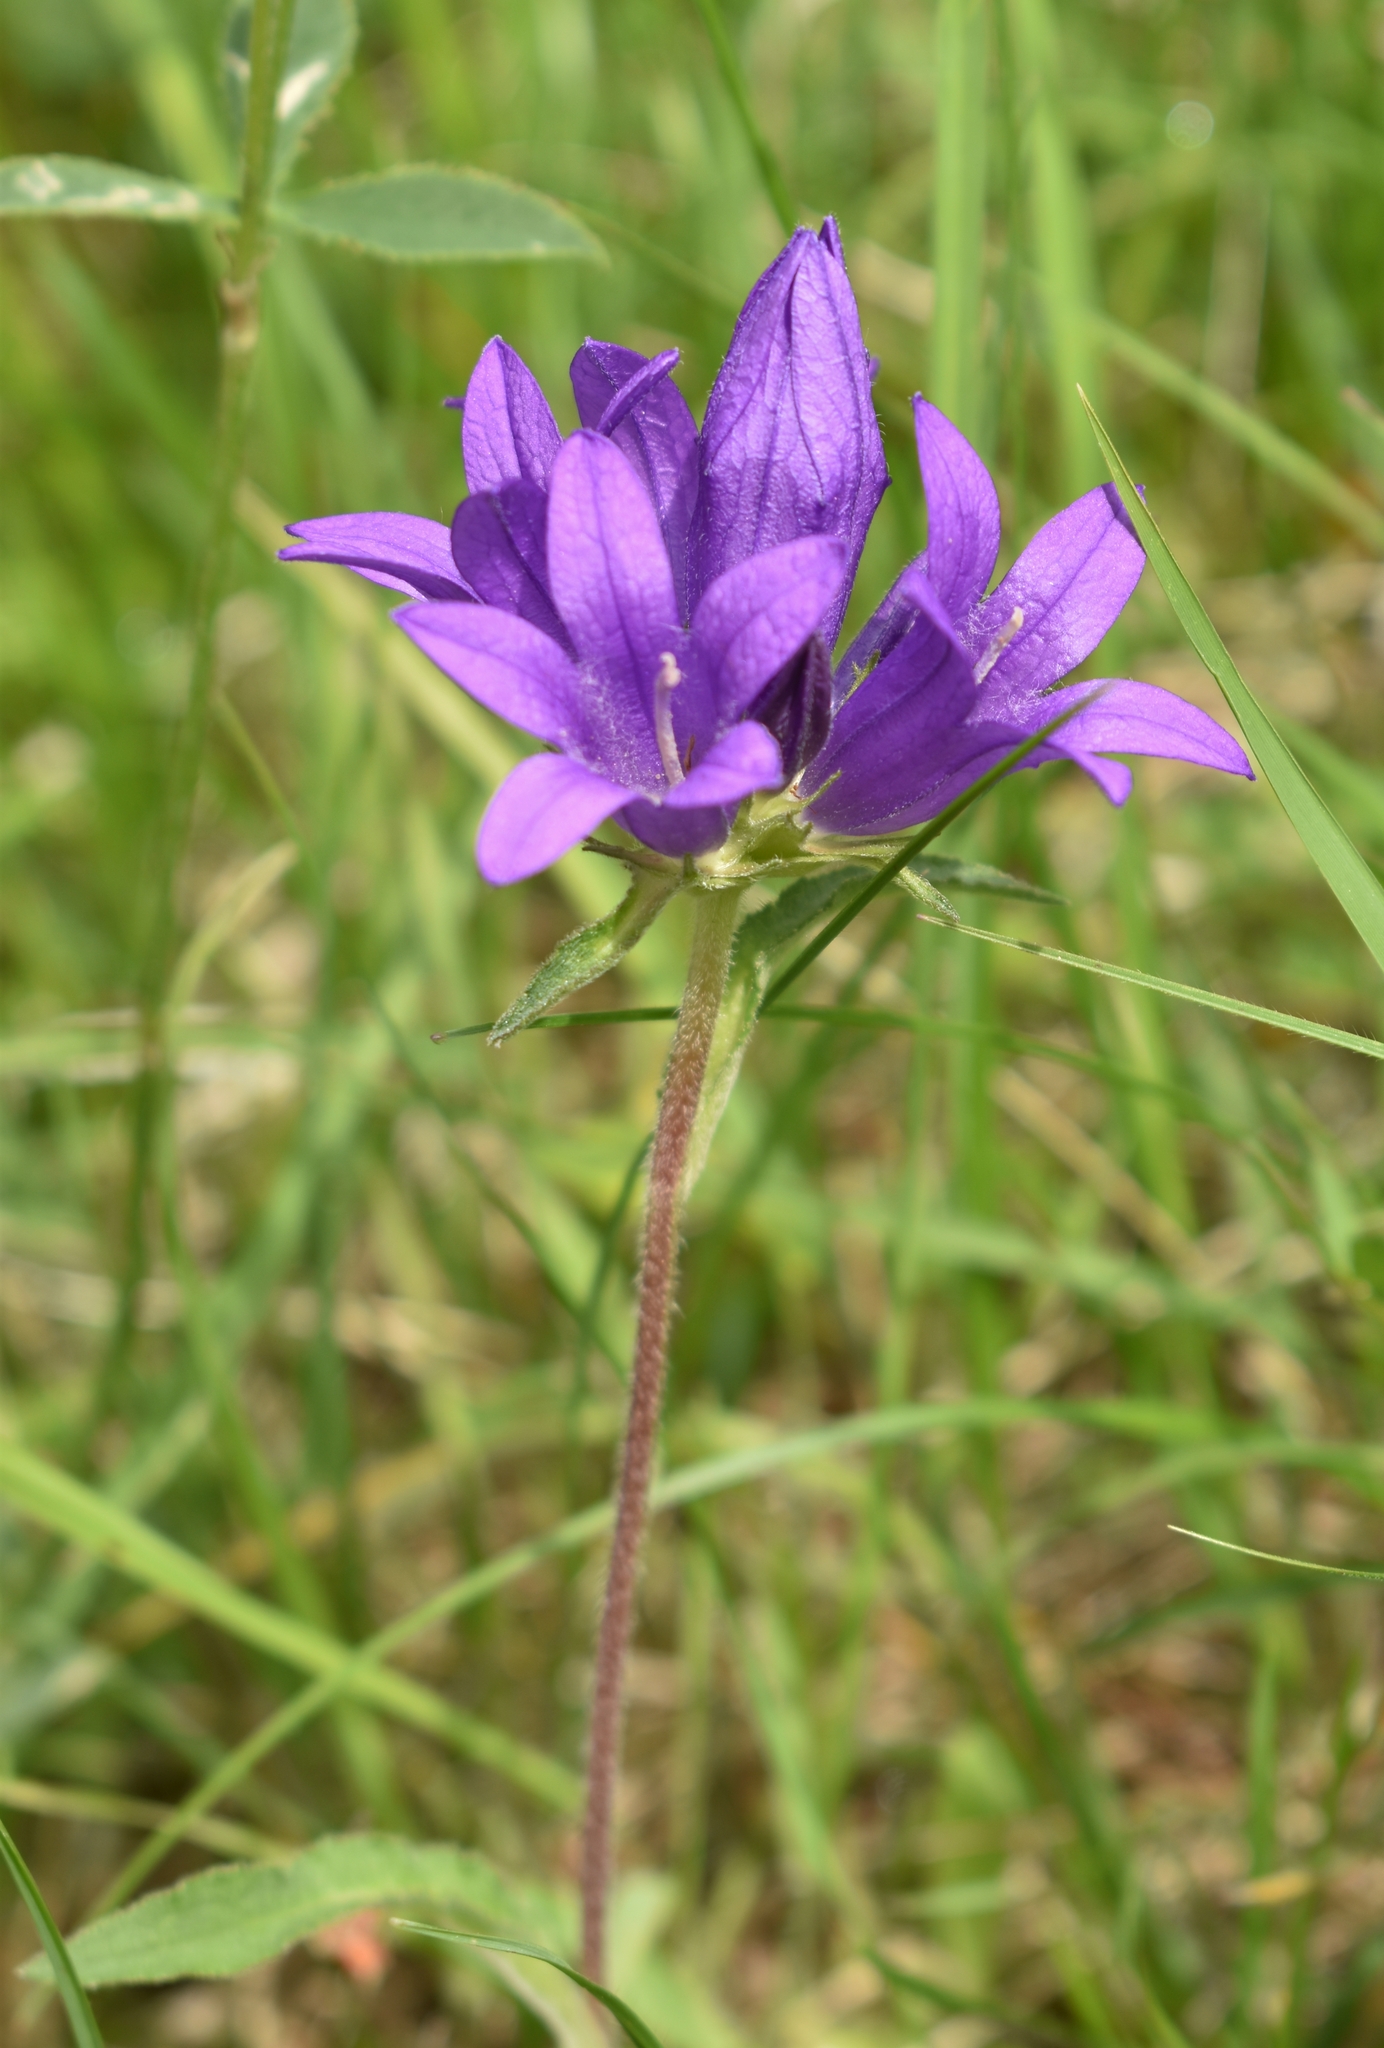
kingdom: Plantae
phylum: Tracheophyta
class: Magnoliopsida
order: Asterales
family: Campanulaceae
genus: Campanula
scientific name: Campanula glomerata
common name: Clustered bellflower
